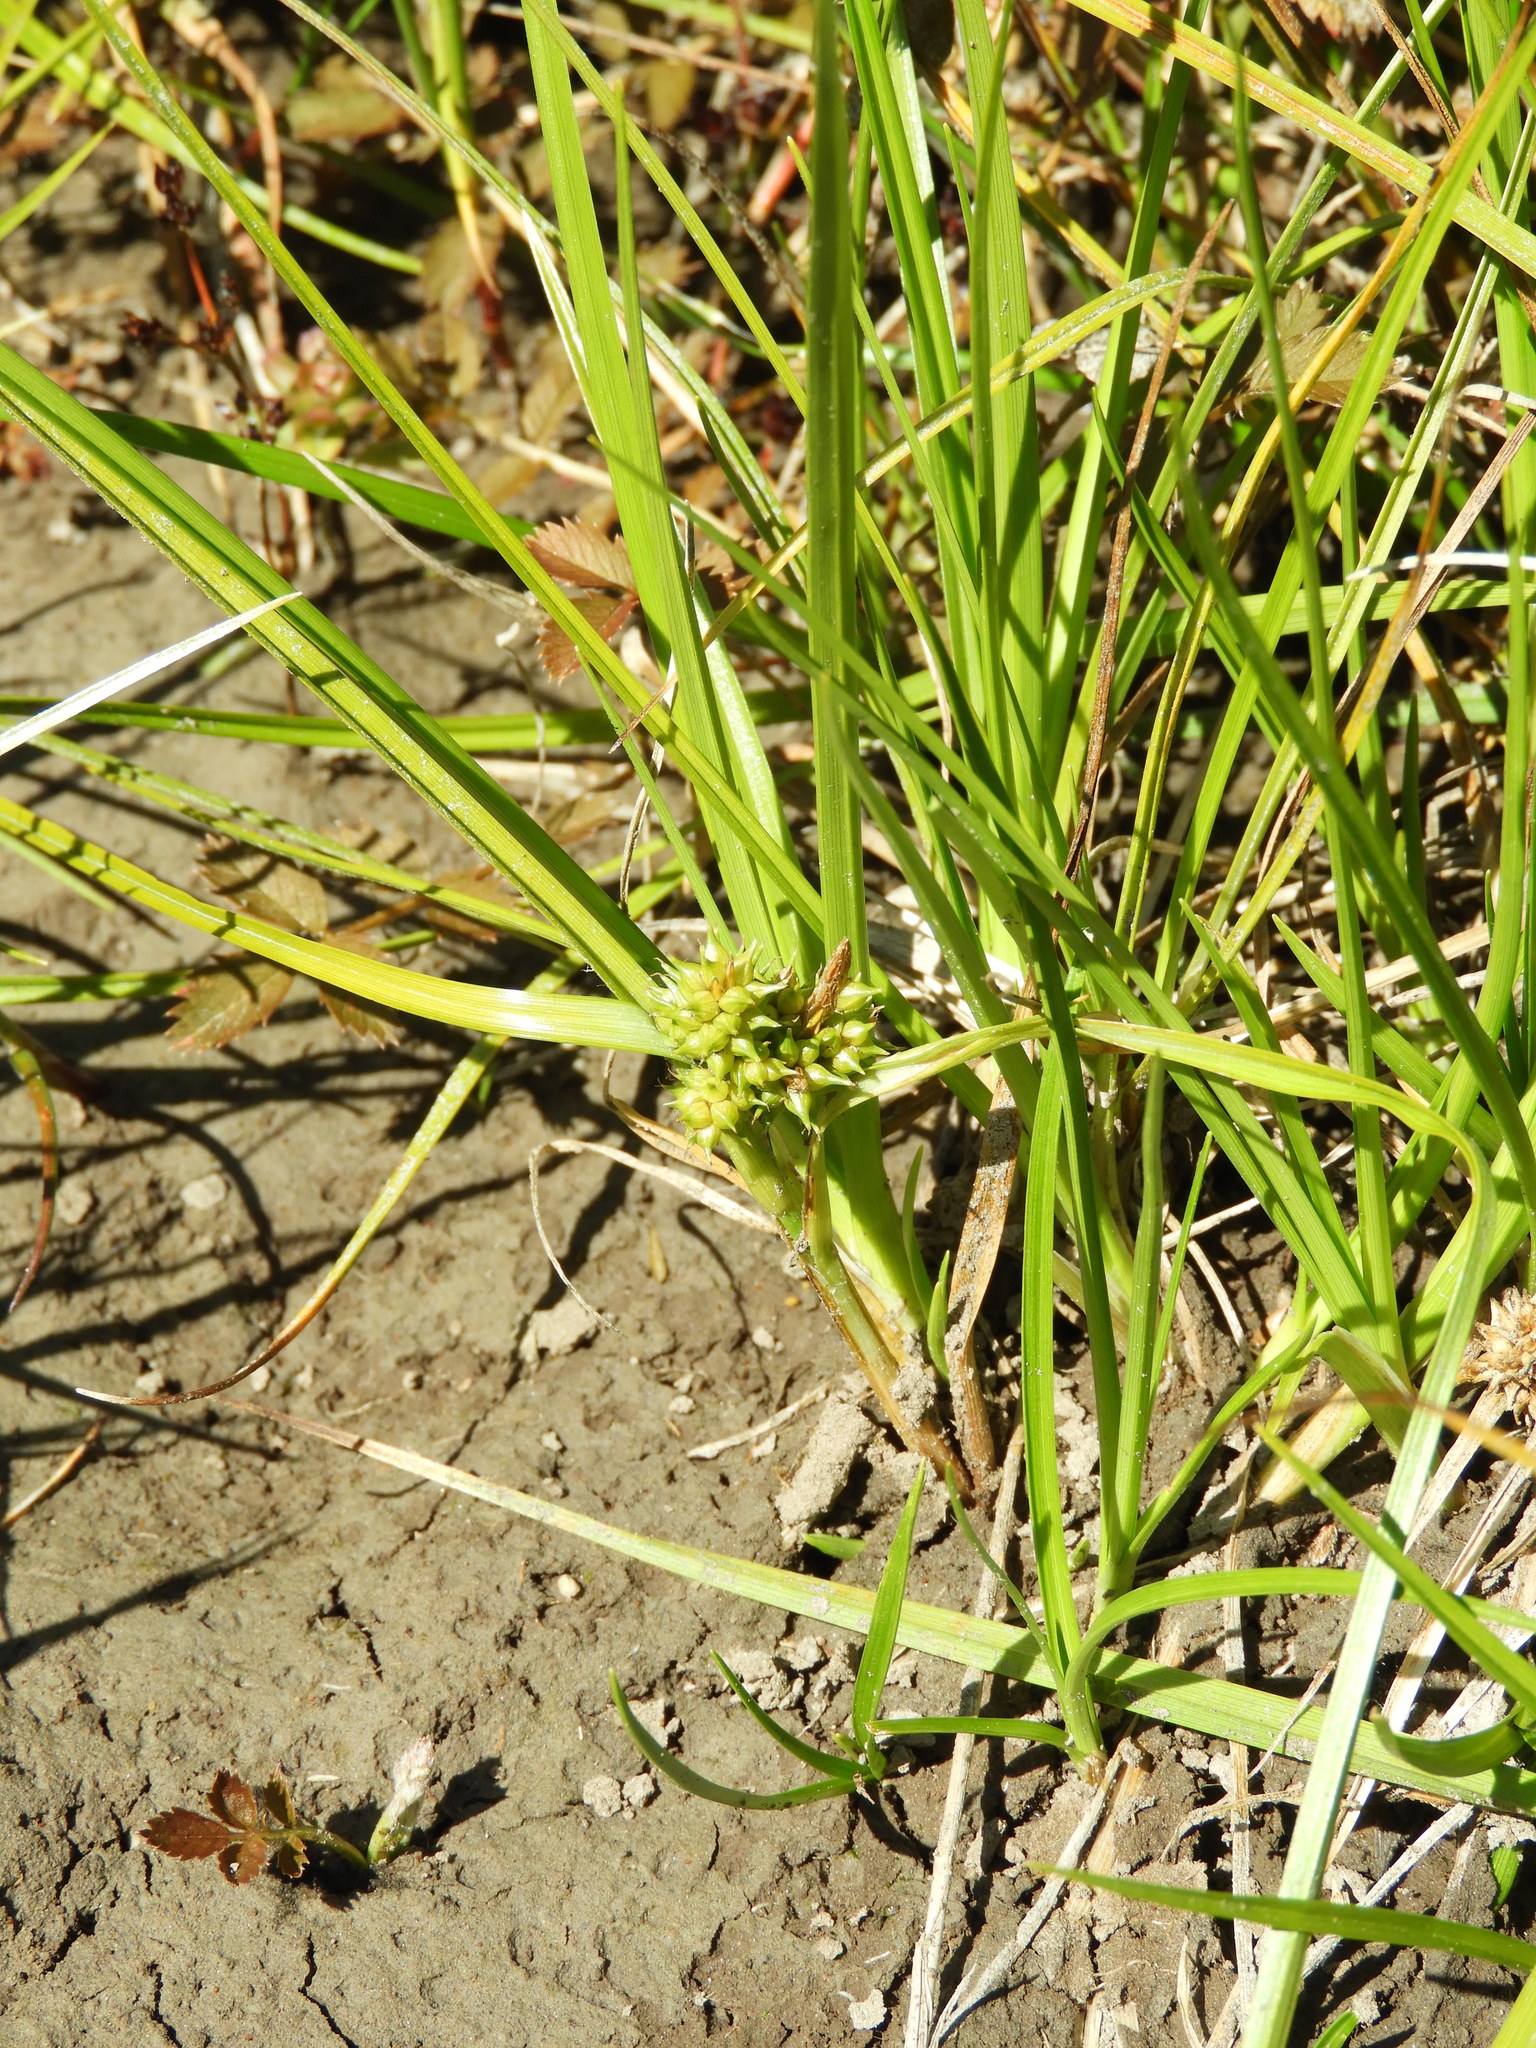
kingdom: Plantae
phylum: Tracheophyta
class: Liliopsida
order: Poales
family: Cyperaceae
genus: Carex
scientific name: Carex flaviformis
